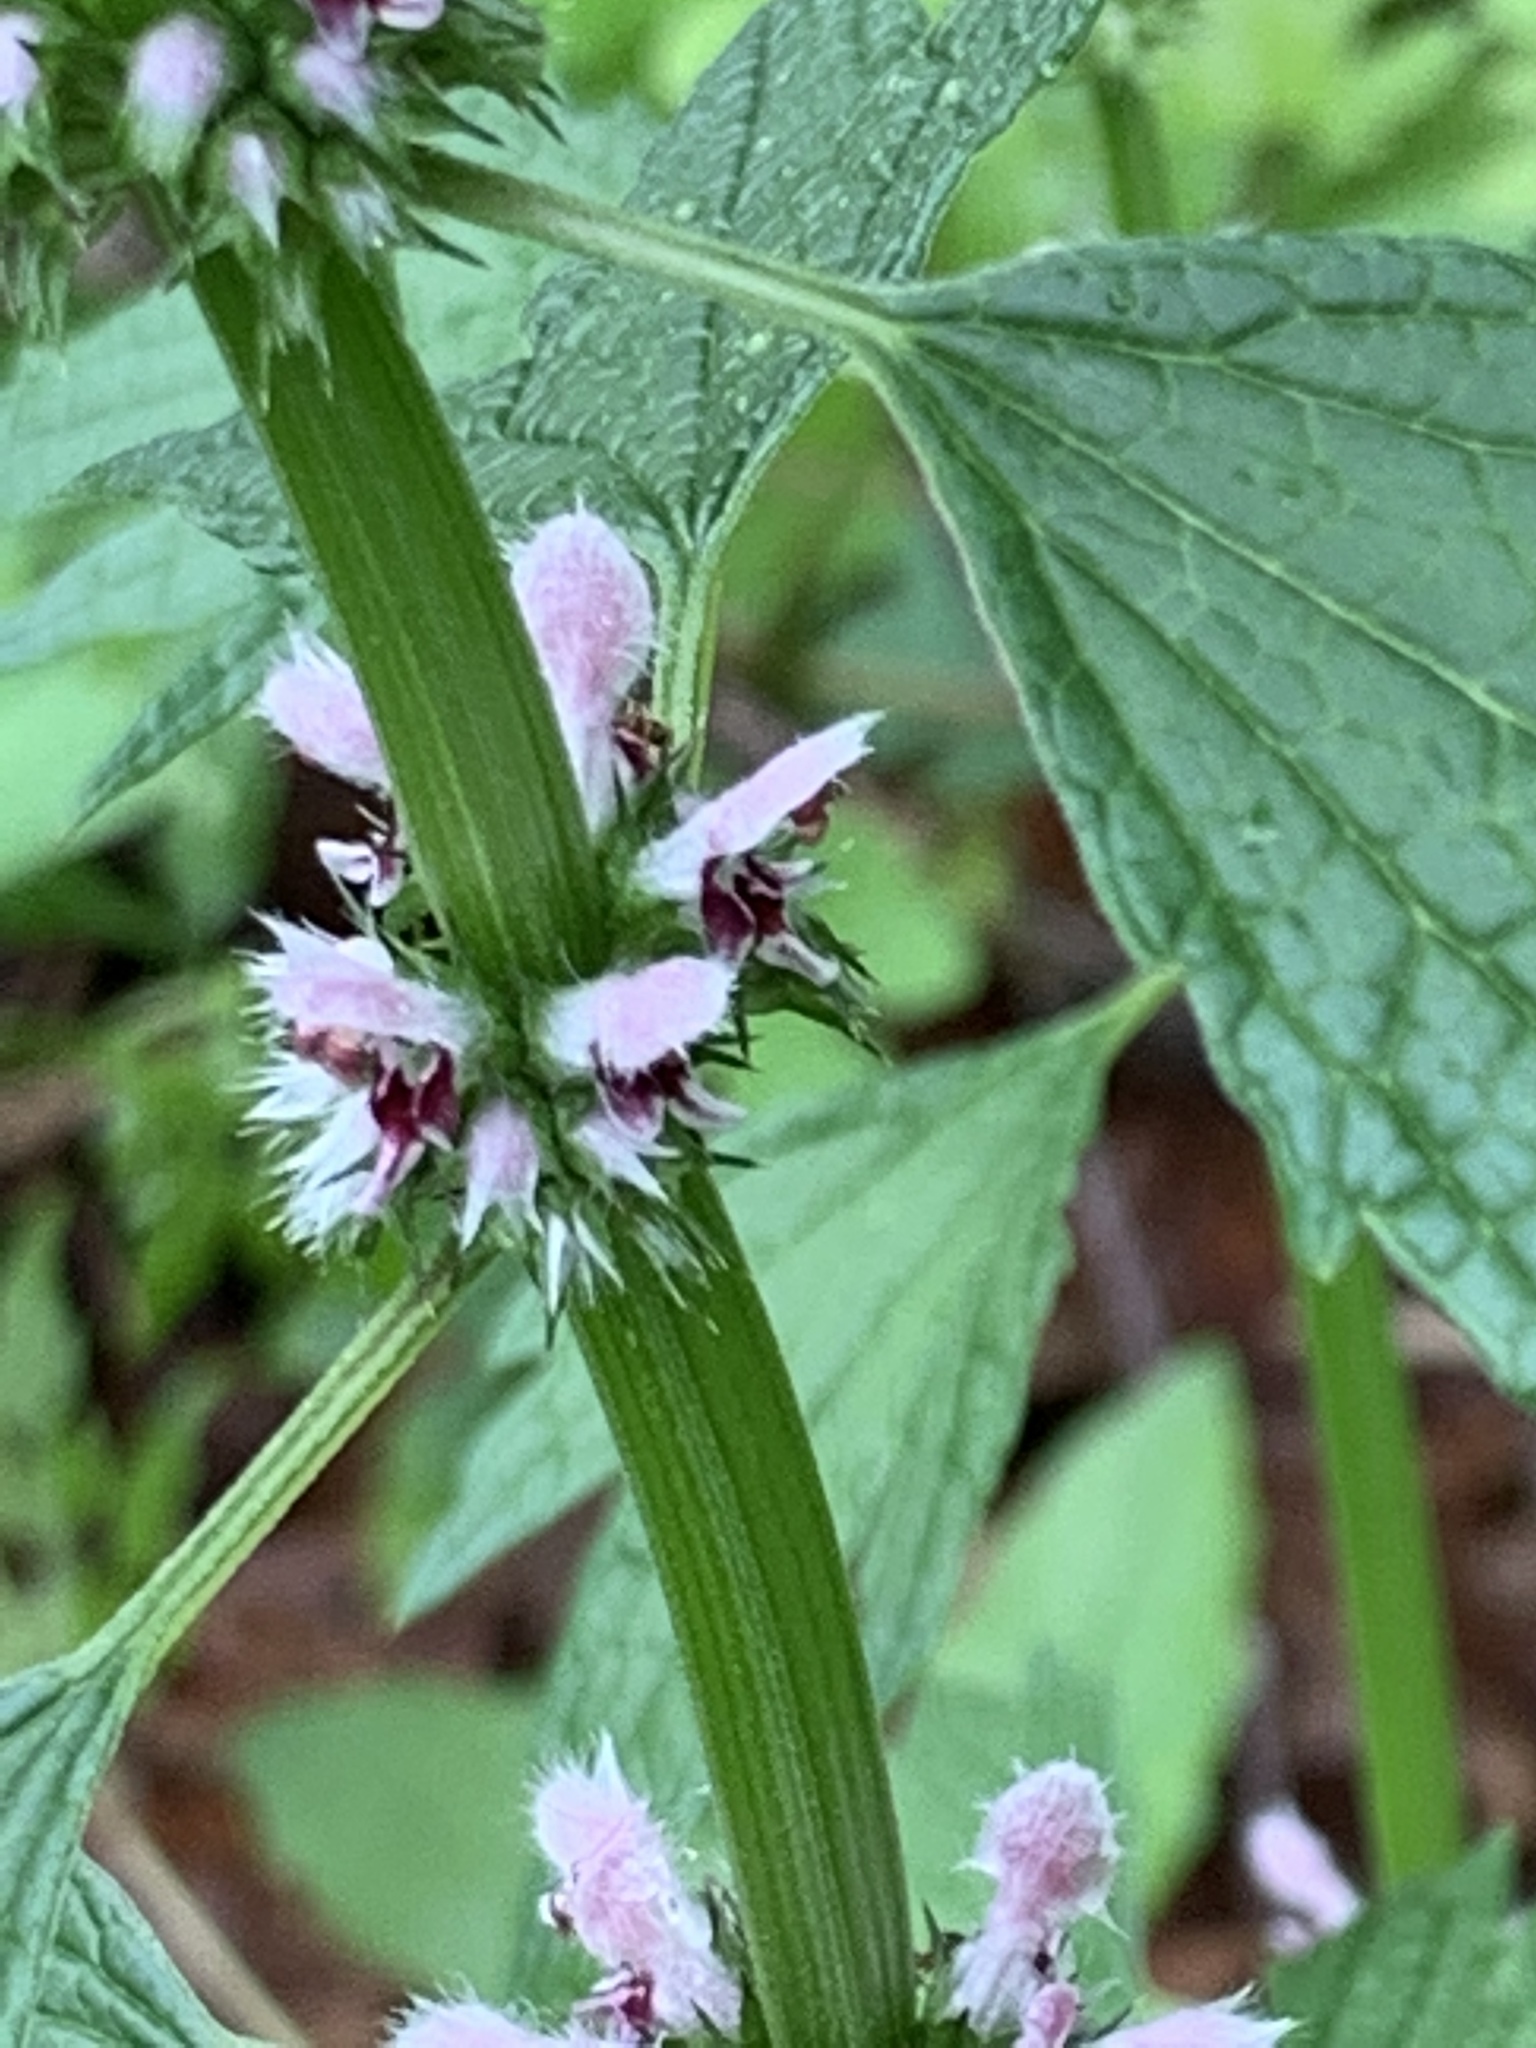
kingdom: Plantae
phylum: Tracheophyta
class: Magnoliopsida
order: Lamiales
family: Lamiaceae
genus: Leonurus
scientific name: Leonurus cardiaca
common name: Motherwort
